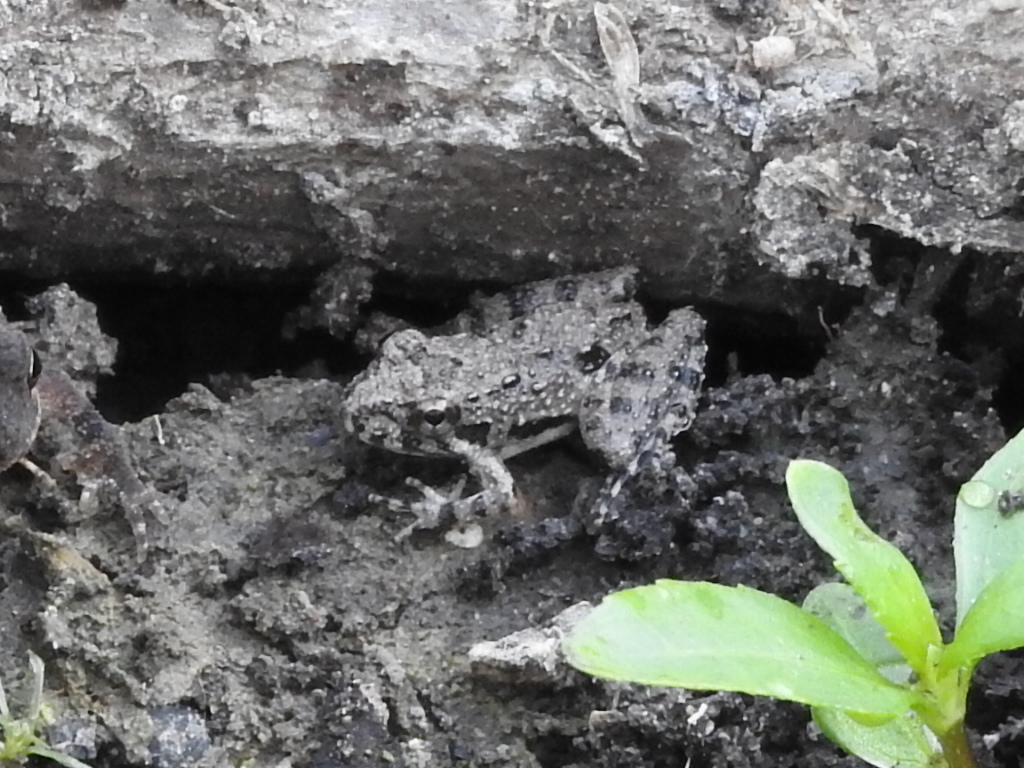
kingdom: Animalia
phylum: Chordata
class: Amphibia
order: Anura
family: Hylidae
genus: Acris
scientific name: Acris blanchardi
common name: Blanchard's cricket frog
